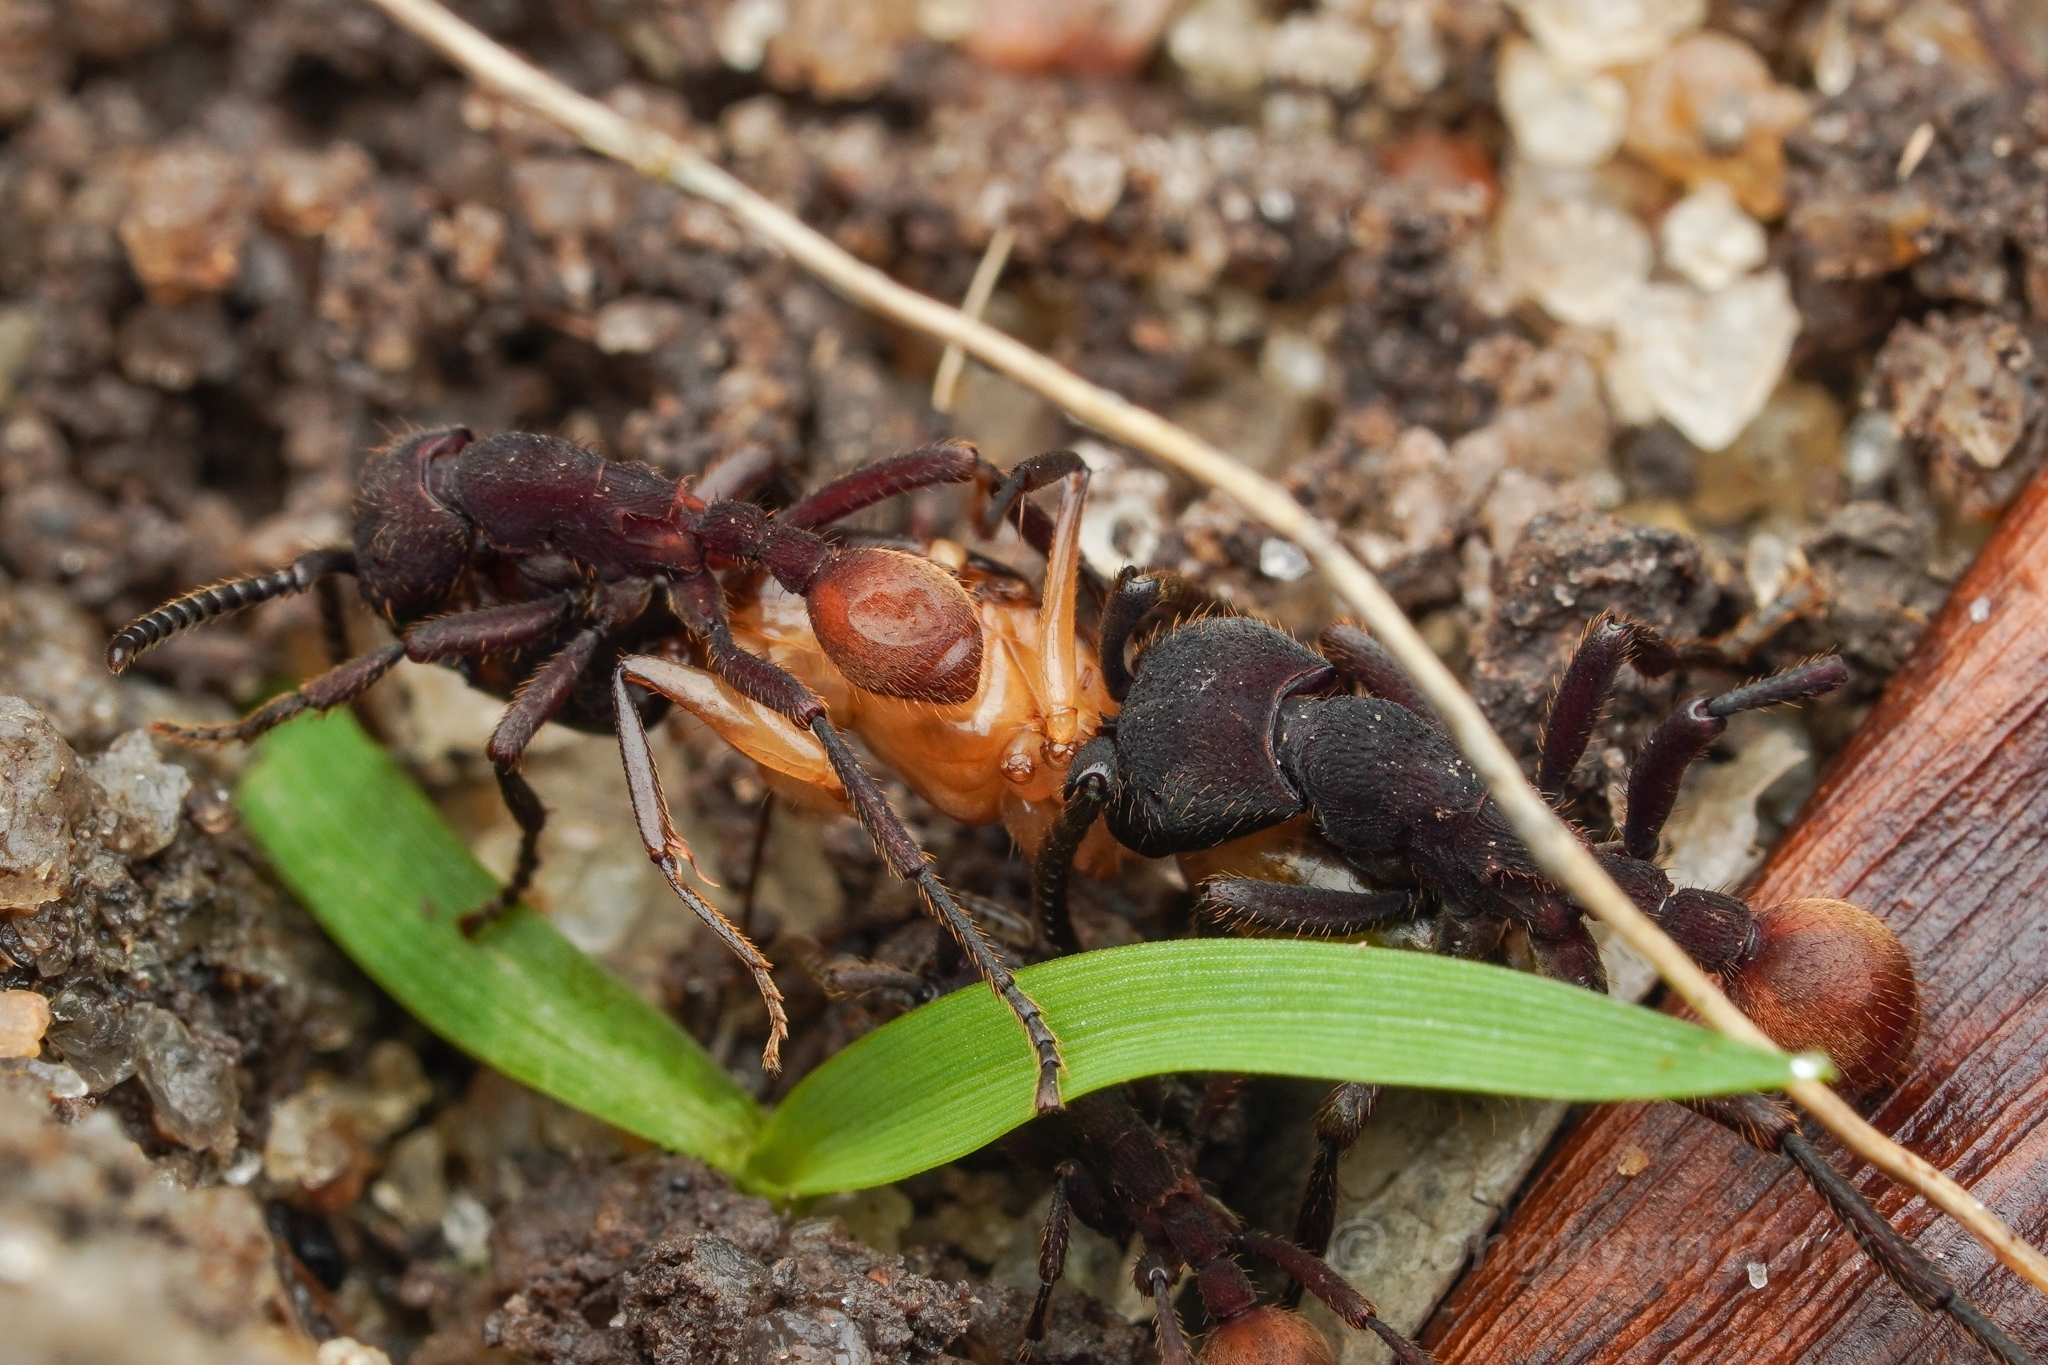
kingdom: Animalia
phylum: Arthropoda
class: Insecta
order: Hymenoptera
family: Formicidae
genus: Nomamyrmex
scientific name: Nomamyrmex esenbeckii
